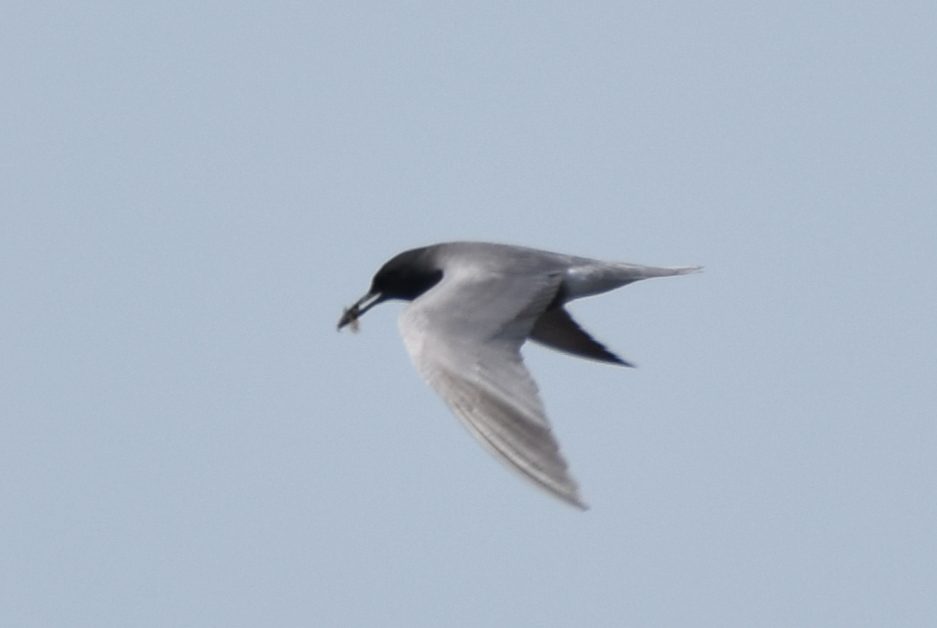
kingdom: Animalia
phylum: Chordata
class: Aves
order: Charadriiformes
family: Laridae
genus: Chlidonias
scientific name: Chlidonias niger
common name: Black tern
